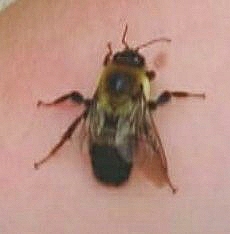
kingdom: Animalia
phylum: Arthropoda
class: Insecta
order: Hymenoptera
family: Apidae
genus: Bombus
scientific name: Bombus griseocollis
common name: Brown-belted bumble bee
